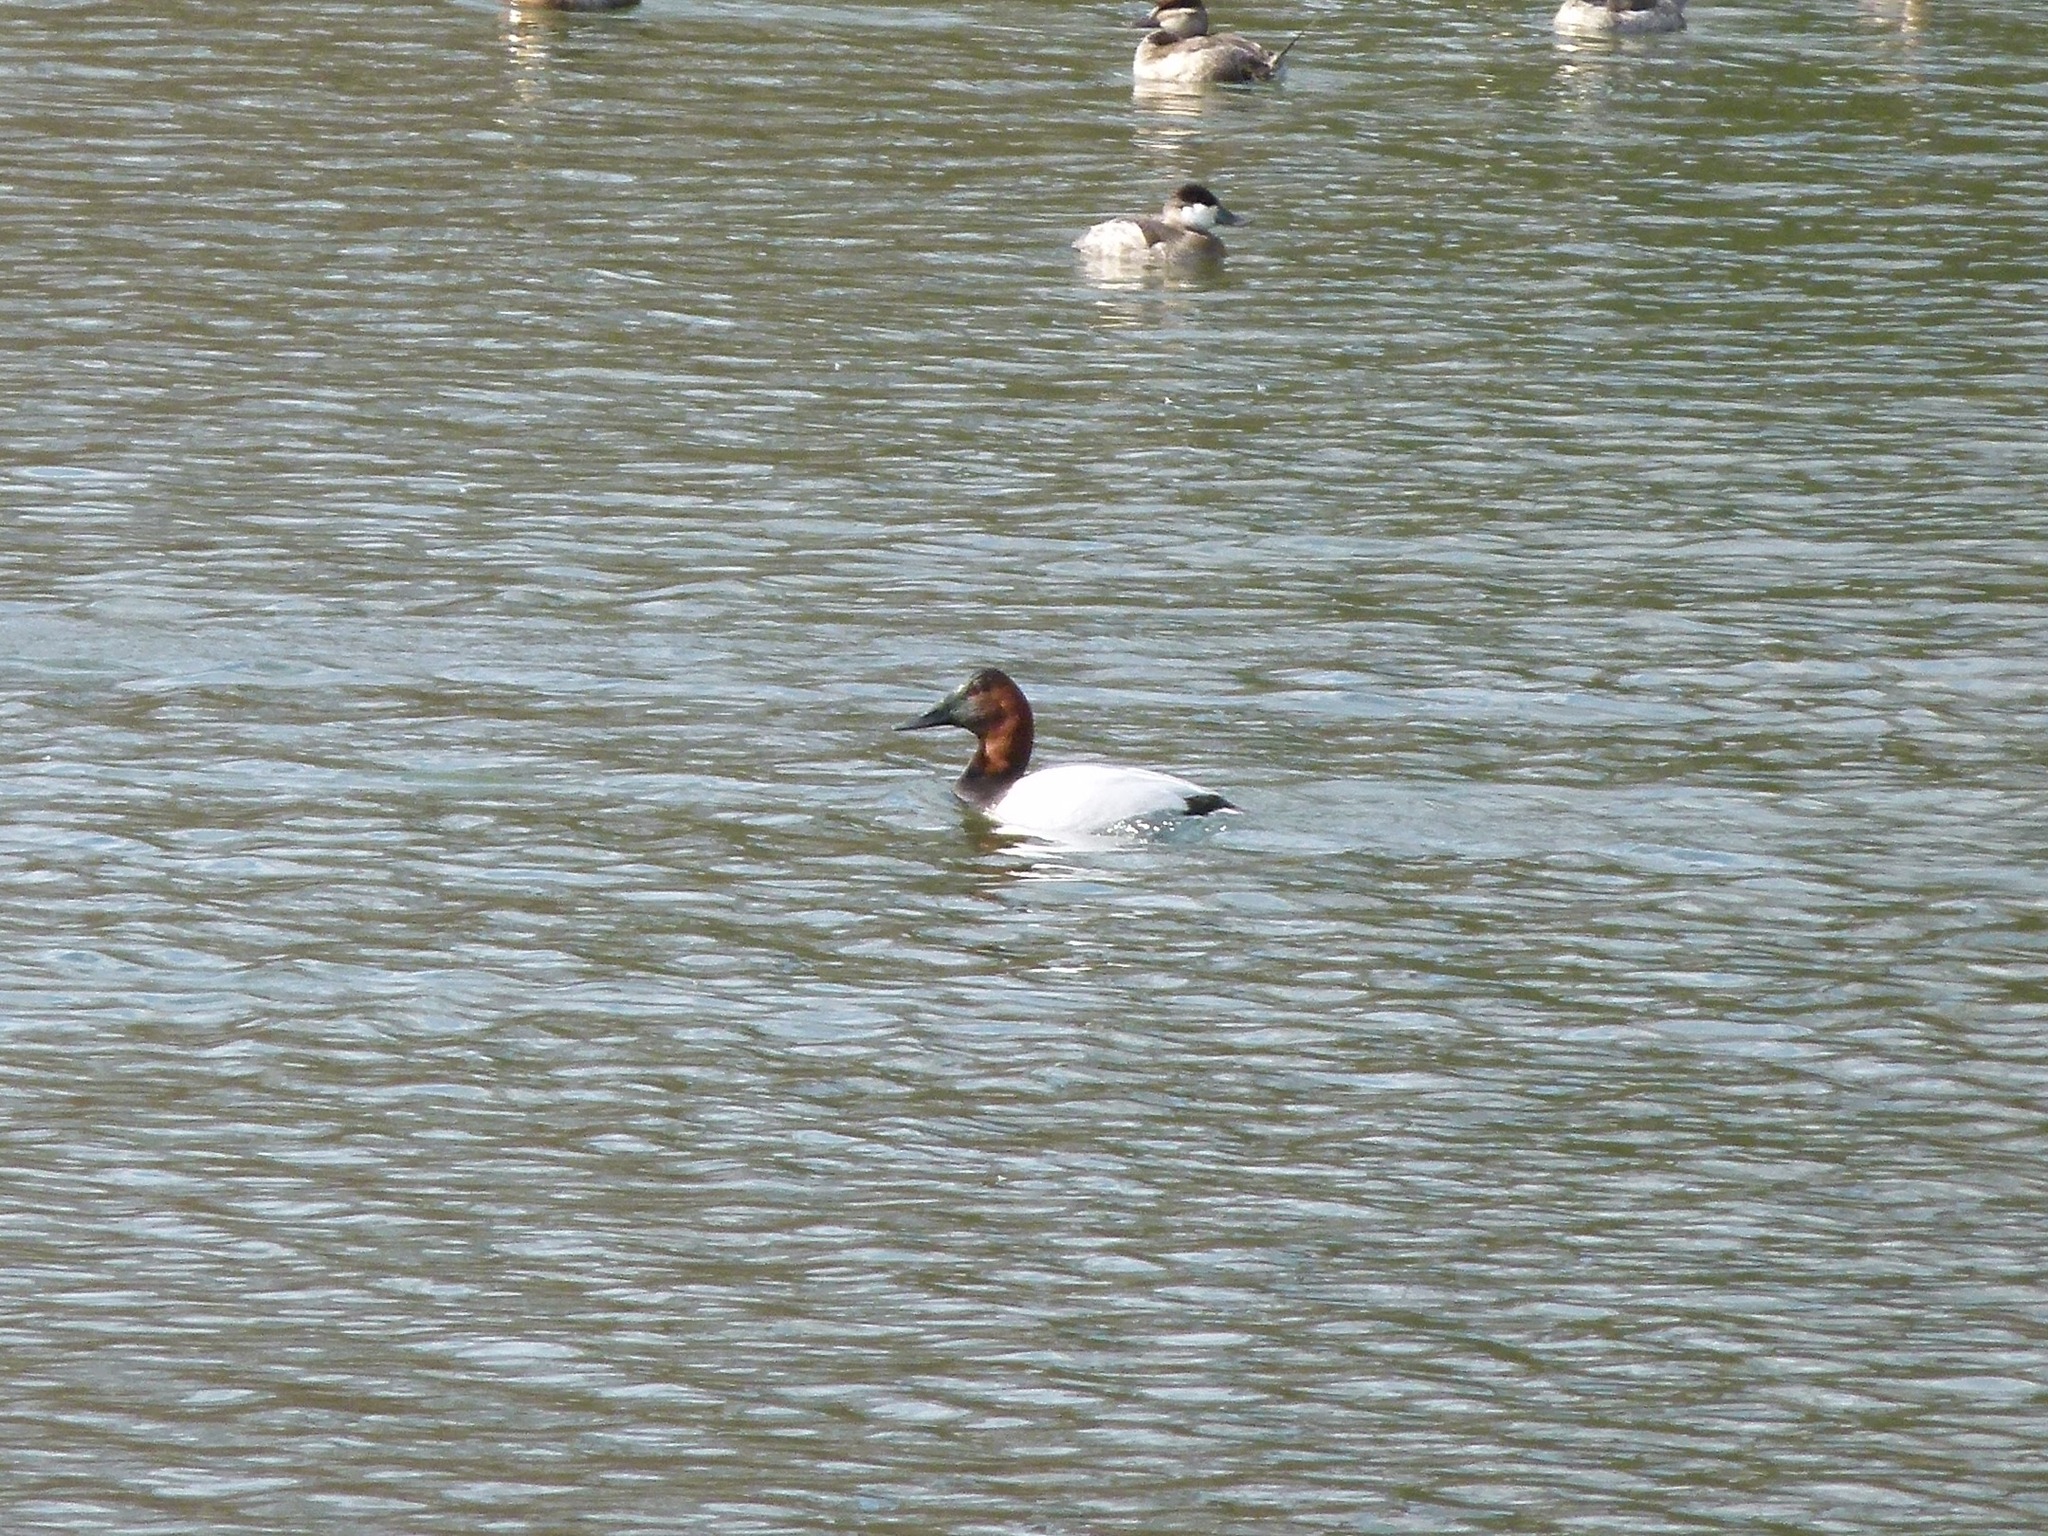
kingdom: Animalia
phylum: Chordata
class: Aves
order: Anseriformes
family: Anatidae
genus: Aythya
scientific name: Aythya valisineria
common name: Canvasback
